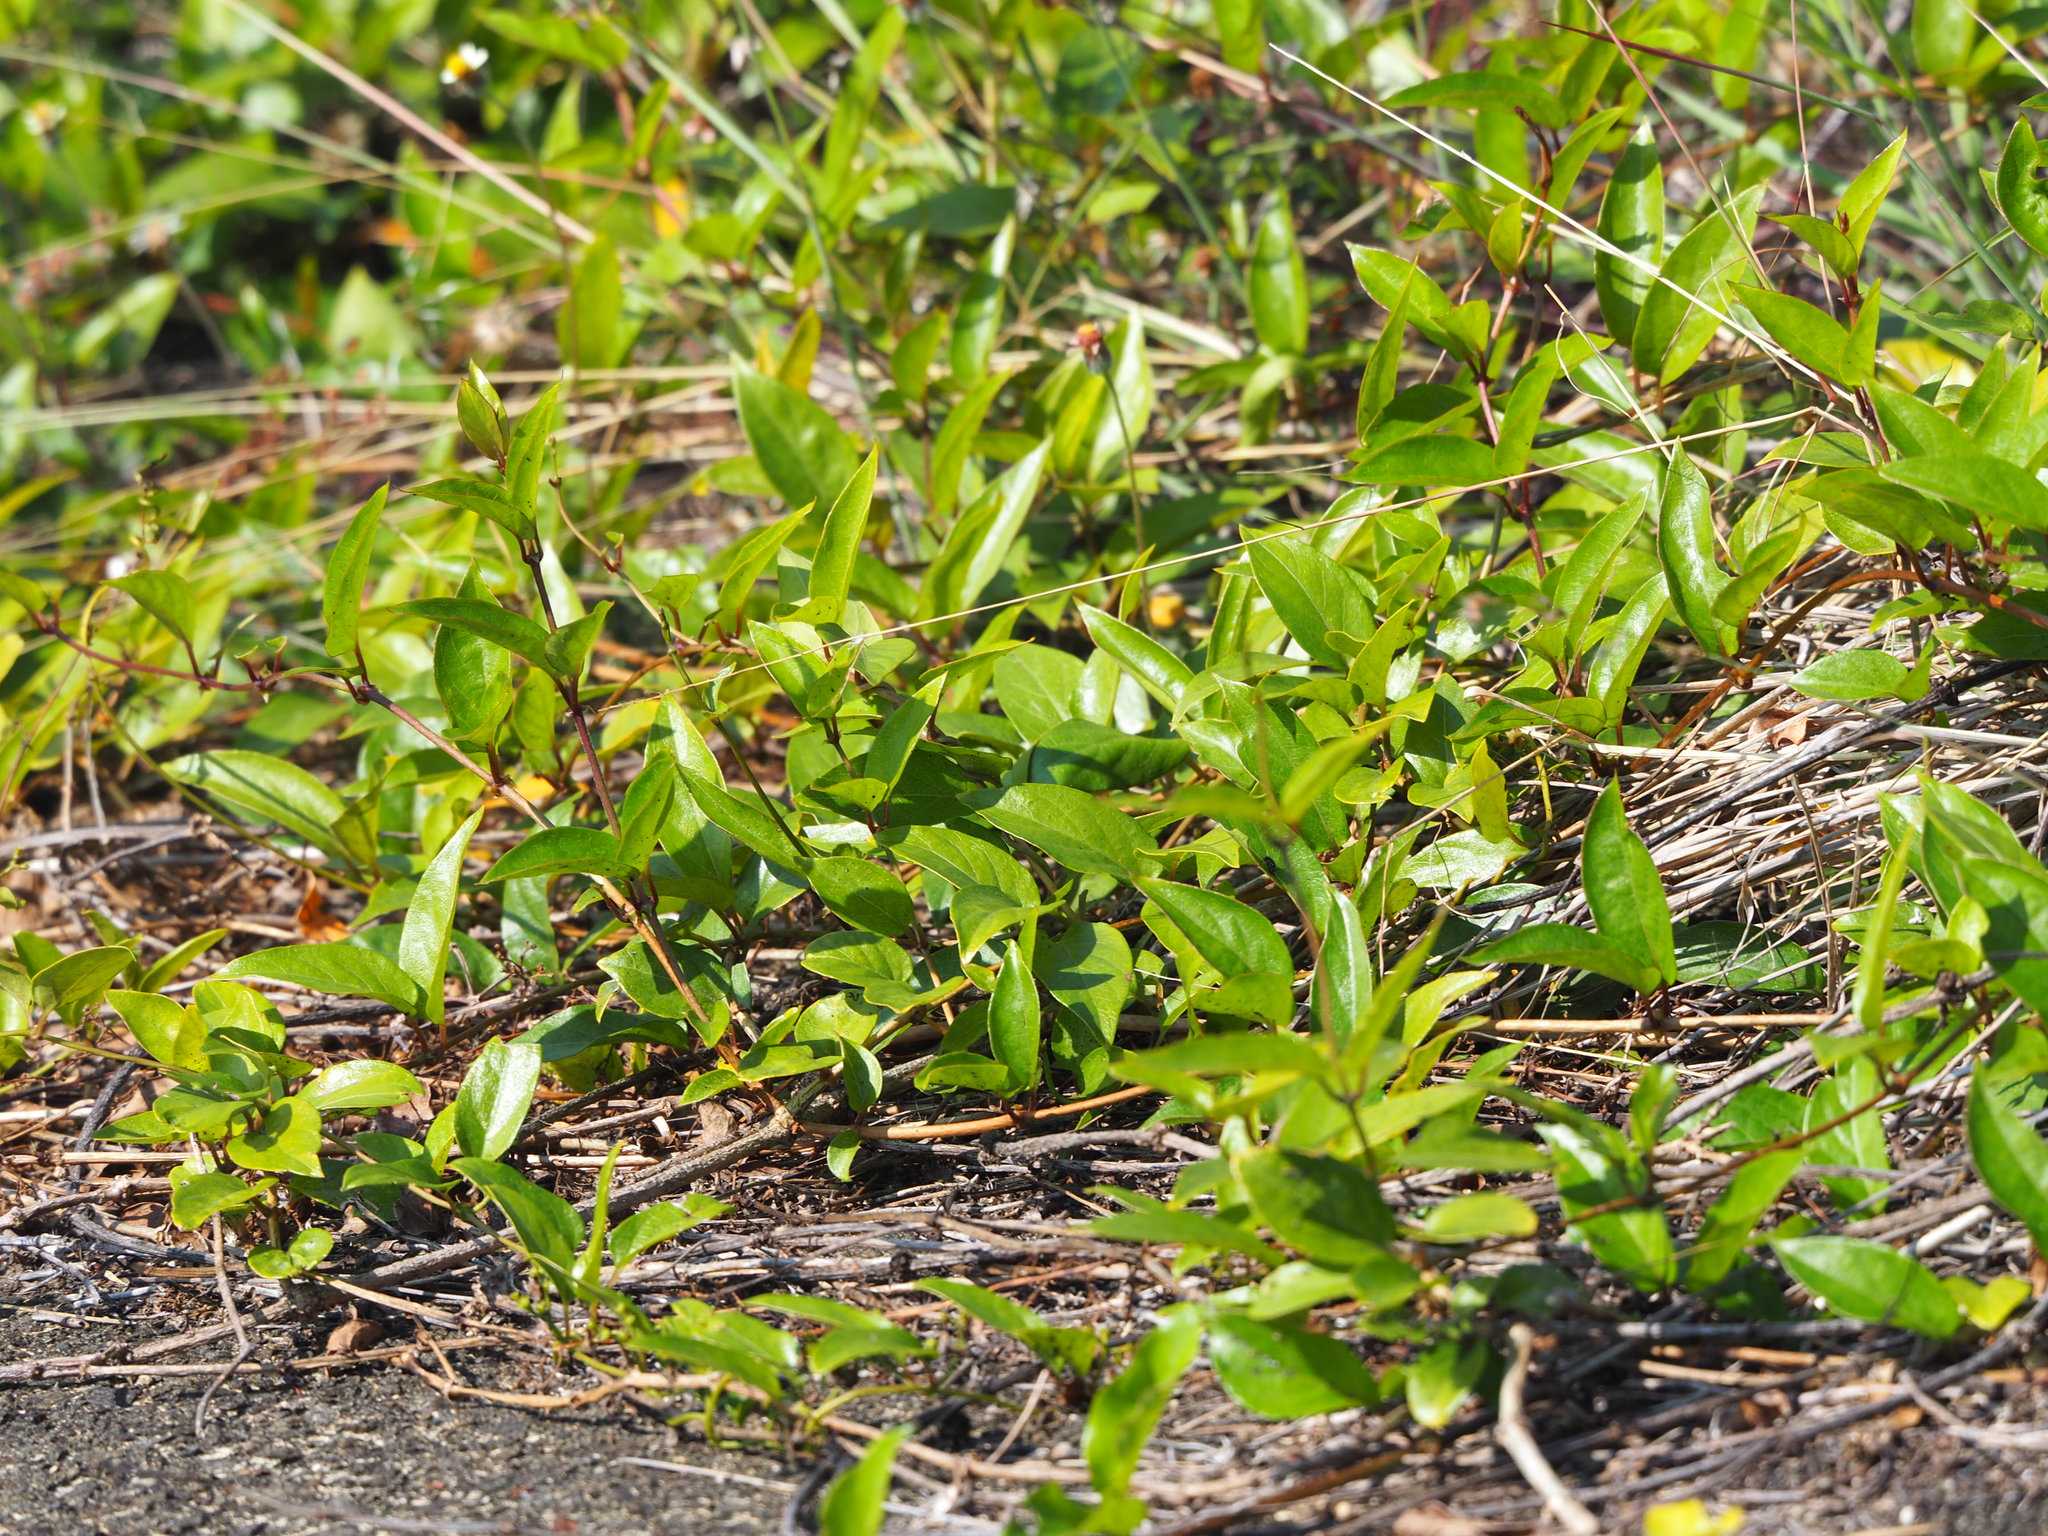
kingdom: Plantae
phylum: Tracheophyta
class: Magnoliopsida
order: Gentianales
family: Rubiaceae
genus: Paederia
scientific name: Paederia foetida
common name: Stinkvine
